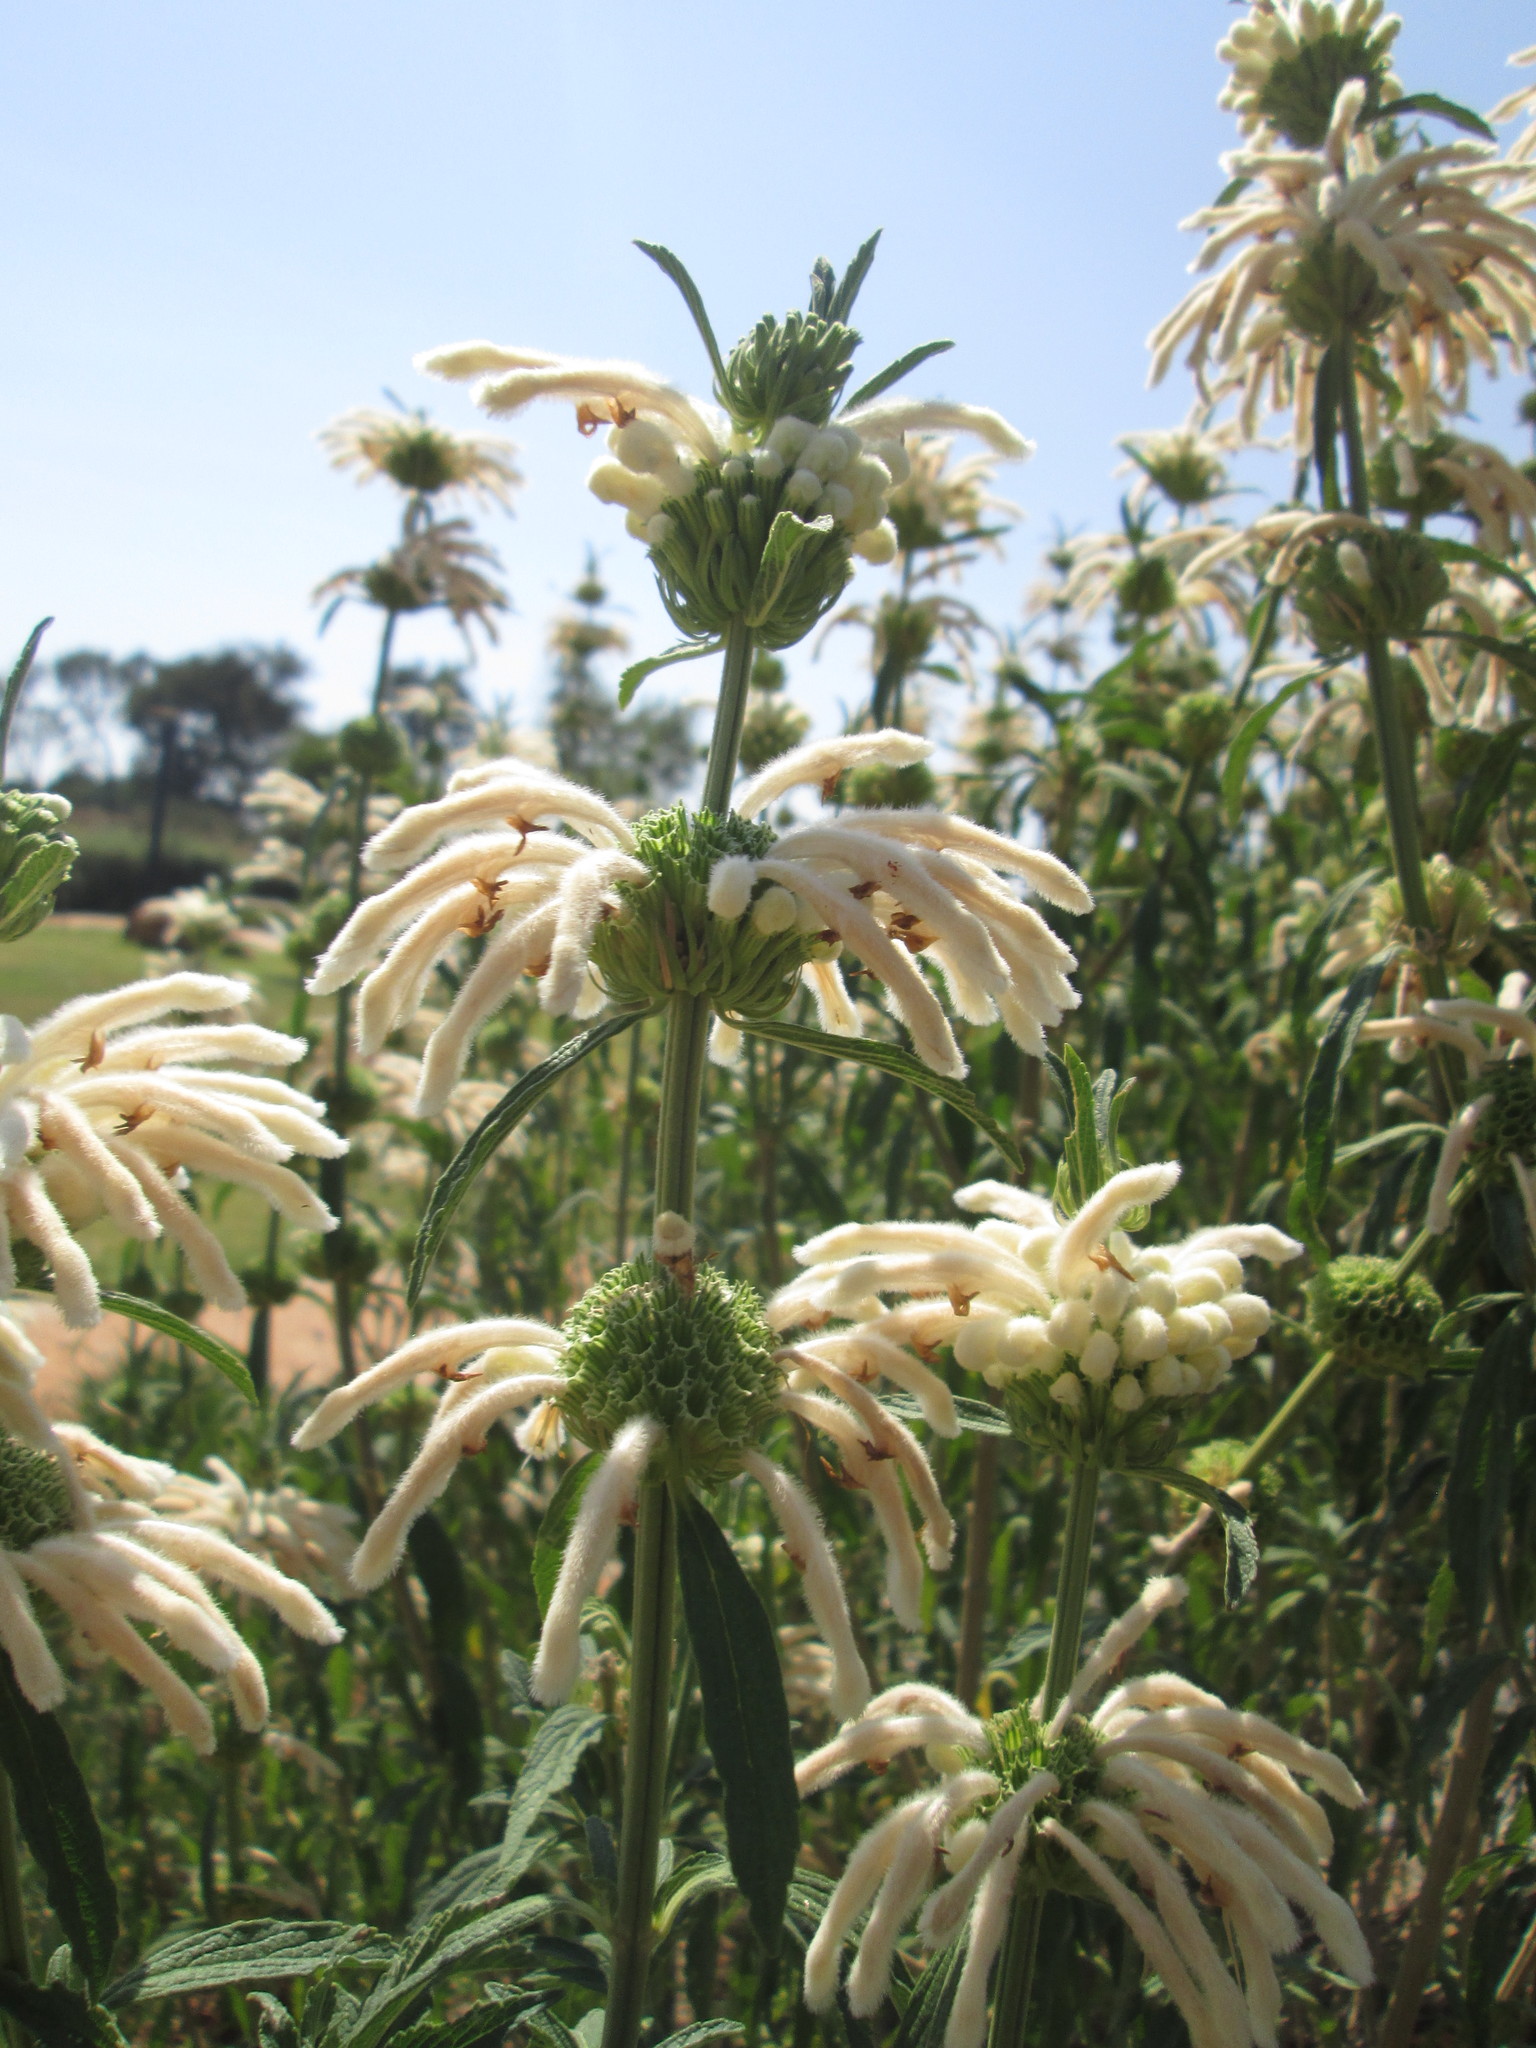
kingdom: Plantae
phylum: Tracheophyta
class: Magnoliopsida
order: Lamiales
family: Lamiaceae
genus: Leonotis
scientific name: Leonotis leonurus
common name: Lion's ear
